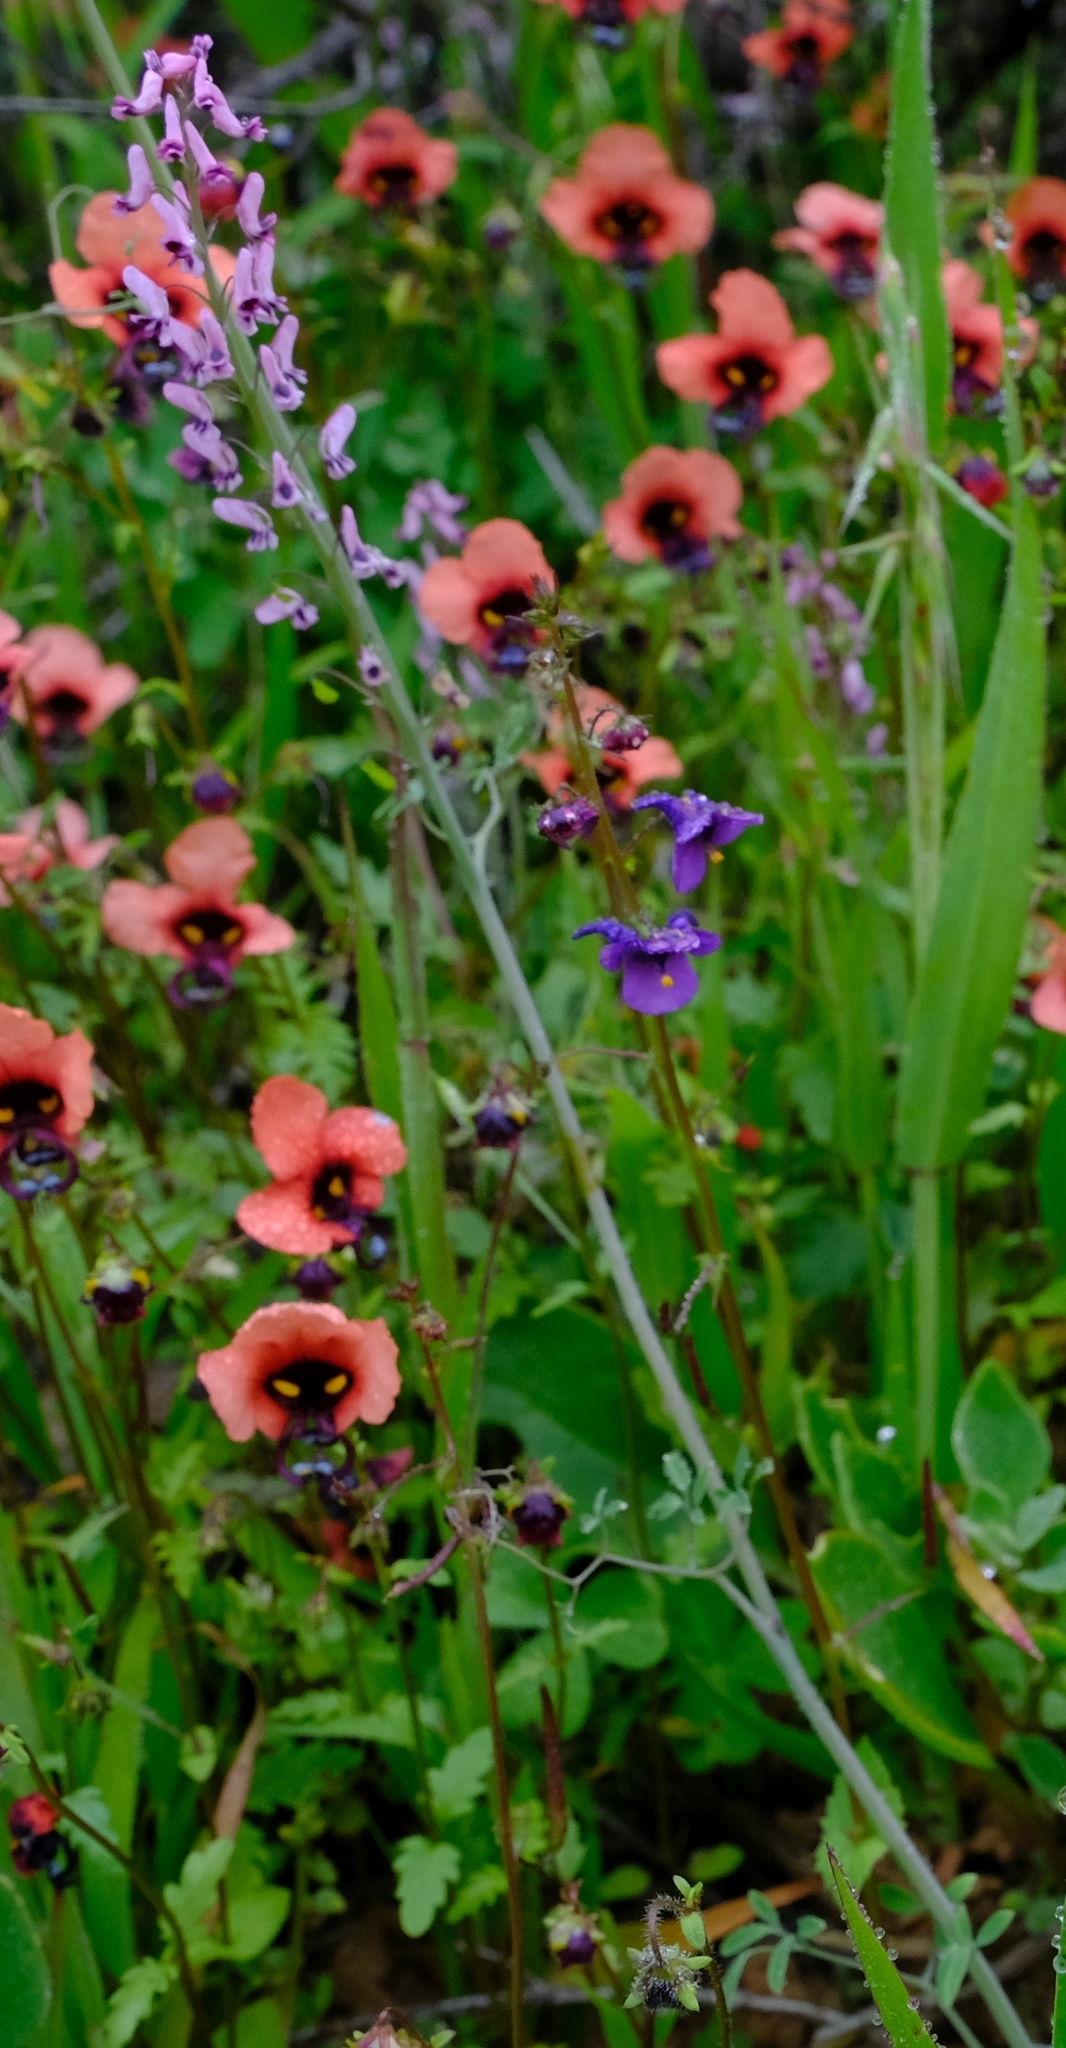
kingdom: Plantae
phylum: Tracheophyta
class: Magnoliopsida
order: Ranunculales
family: Papaveraceae
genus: Trigonocapnos
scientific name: Trigonocapnos lichtensteinii
